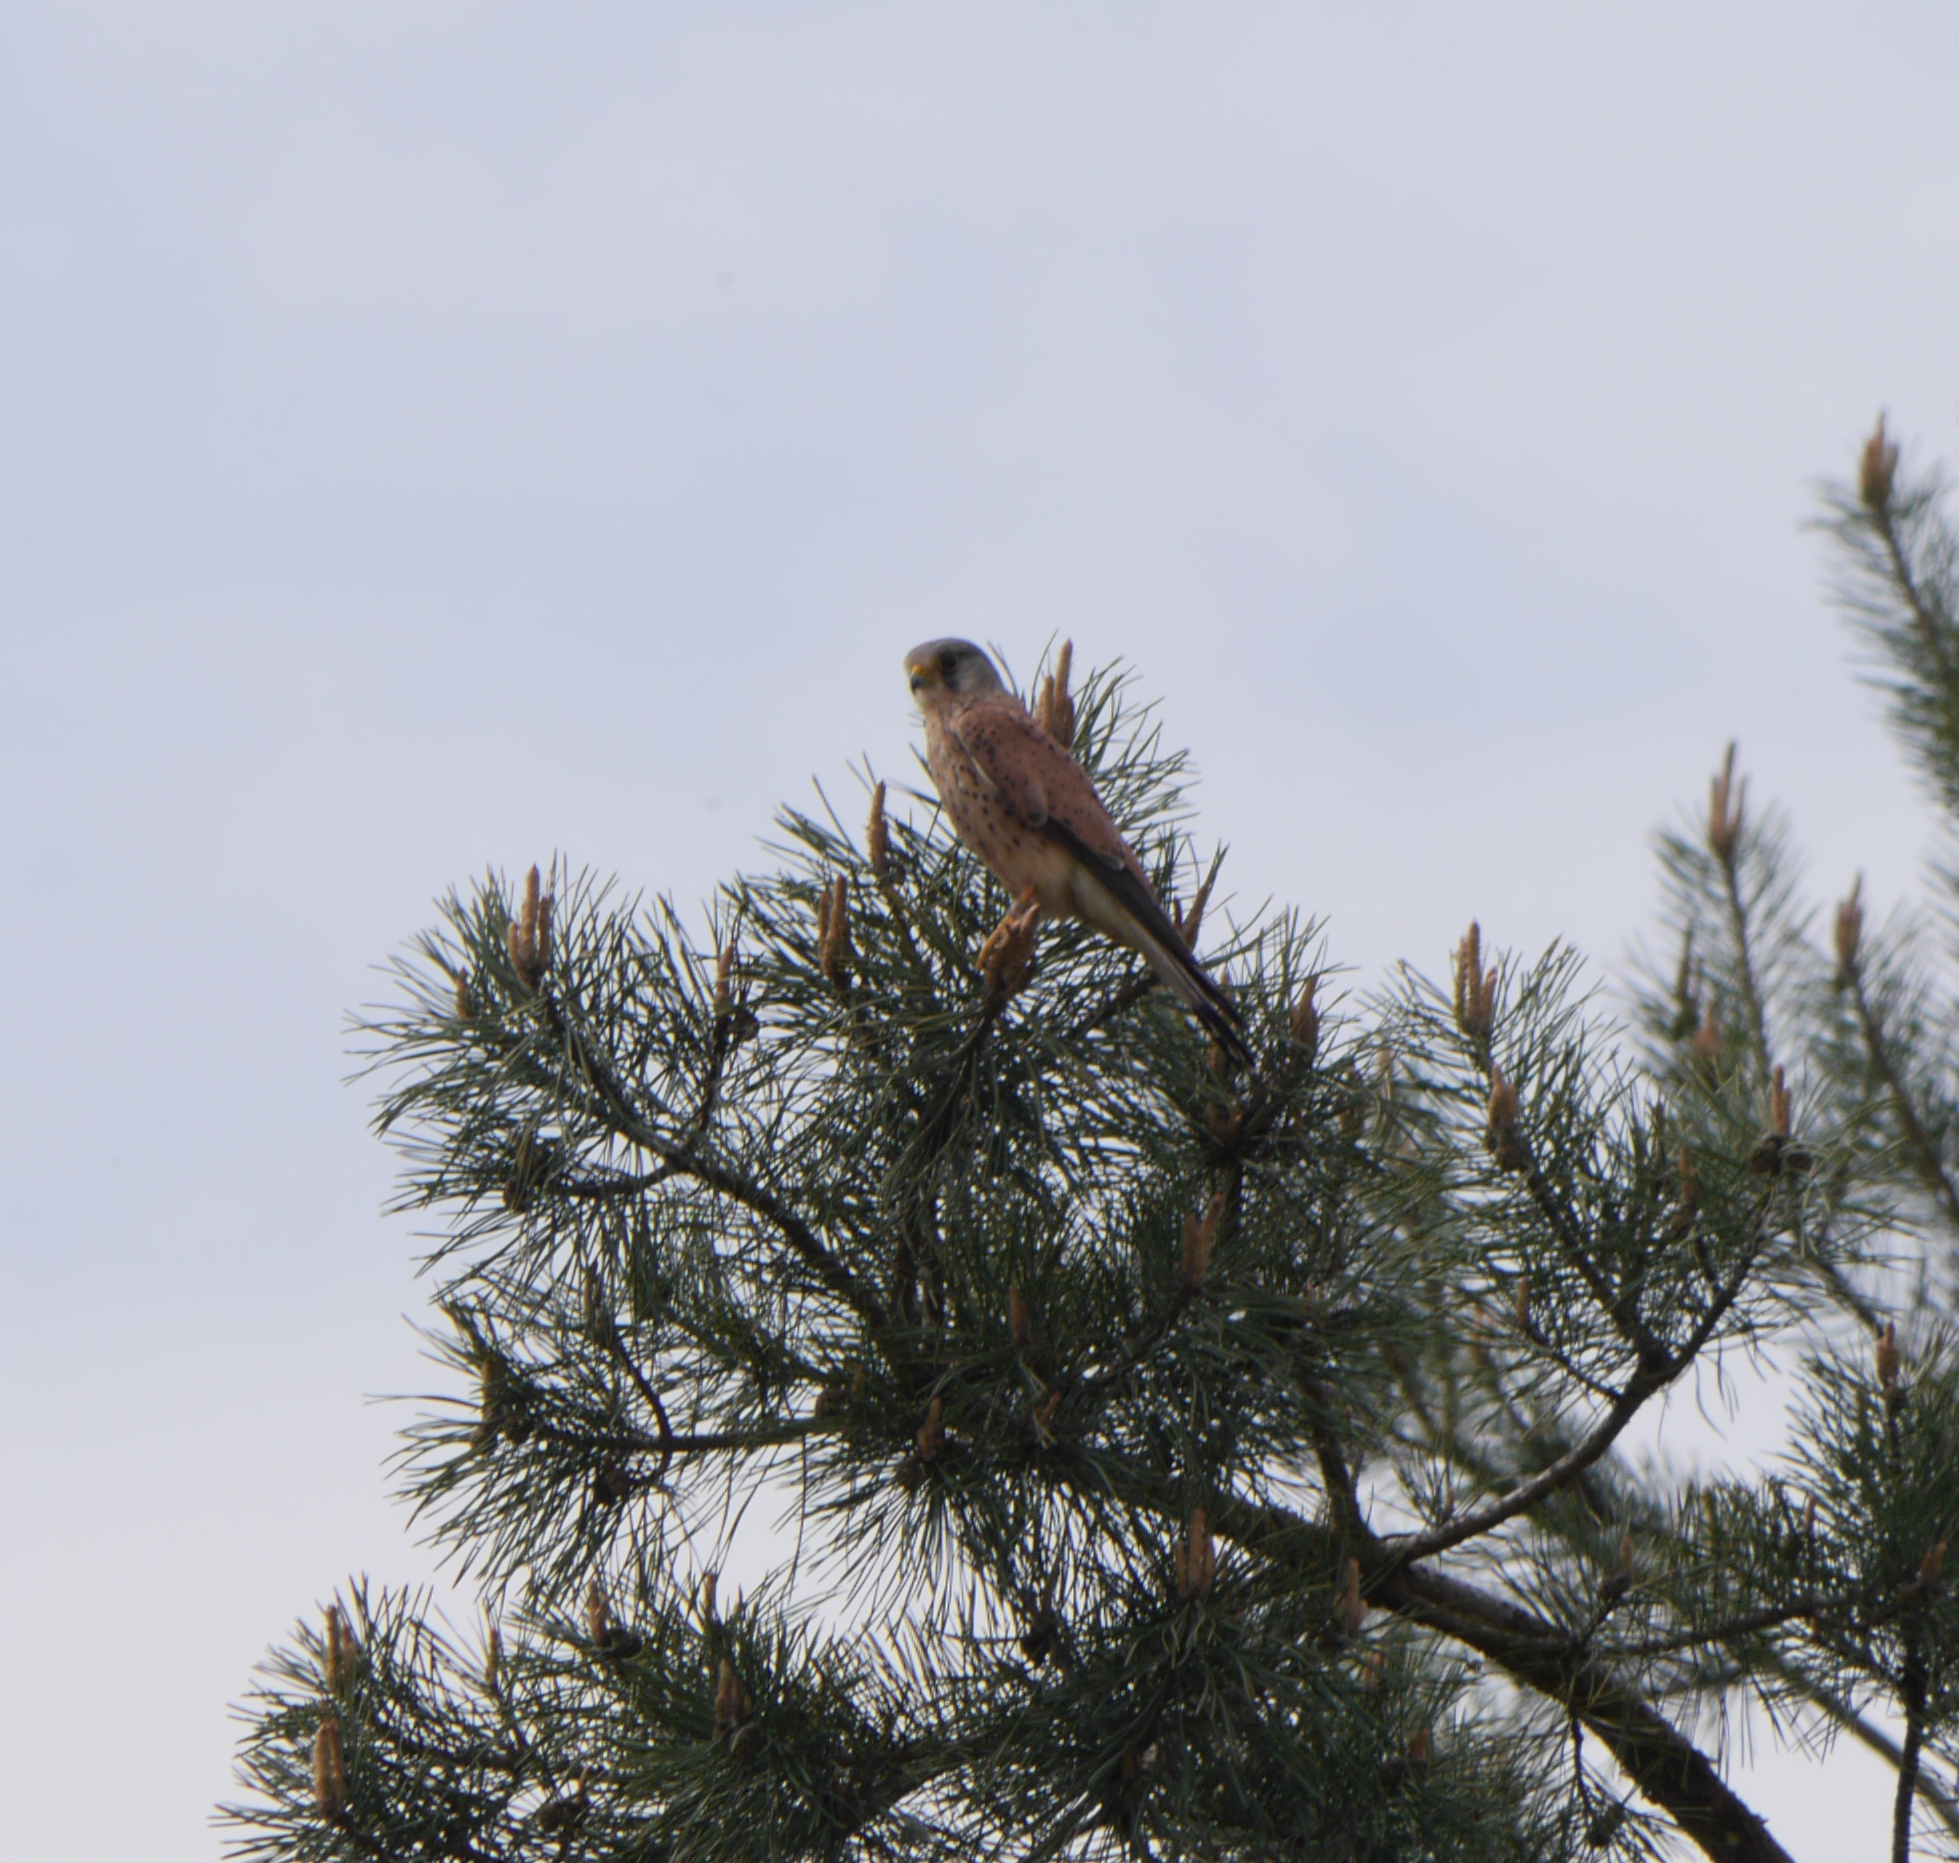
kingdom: Animalia
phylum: Chordata
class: Aves
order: Falconiformes
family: Falconidae
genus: Falco
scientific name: Falco tinnunculus
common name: Common kestrel
